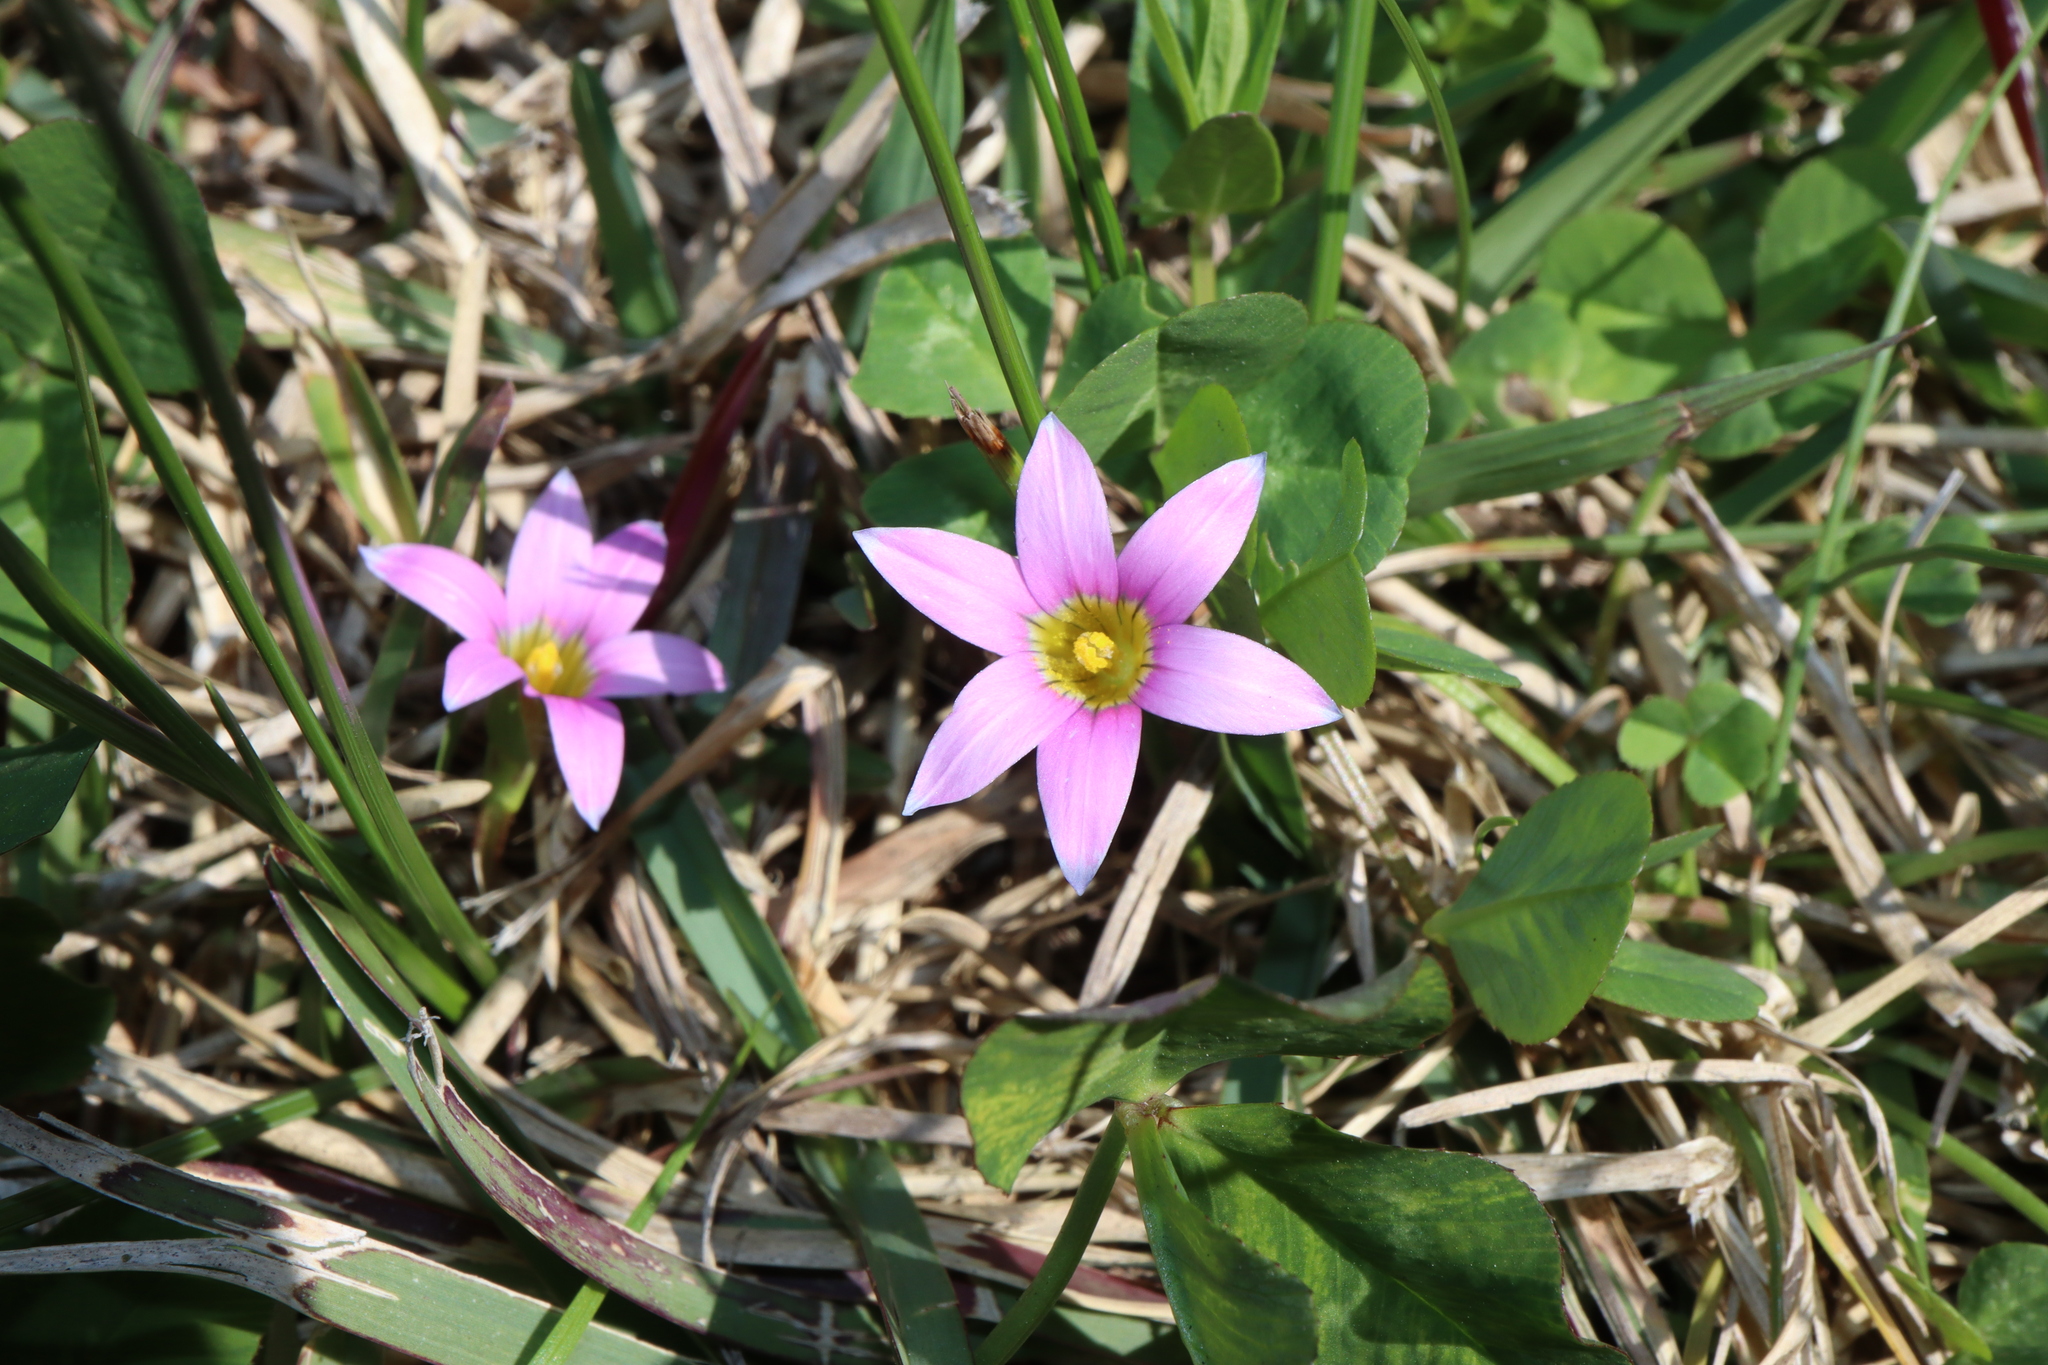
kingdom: Plantae
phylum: Tracheophyta
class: Liliopsida
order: Asparagales
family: Iridaceae
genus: Romulea
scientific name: Romulea rosea
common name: Oniongrass
